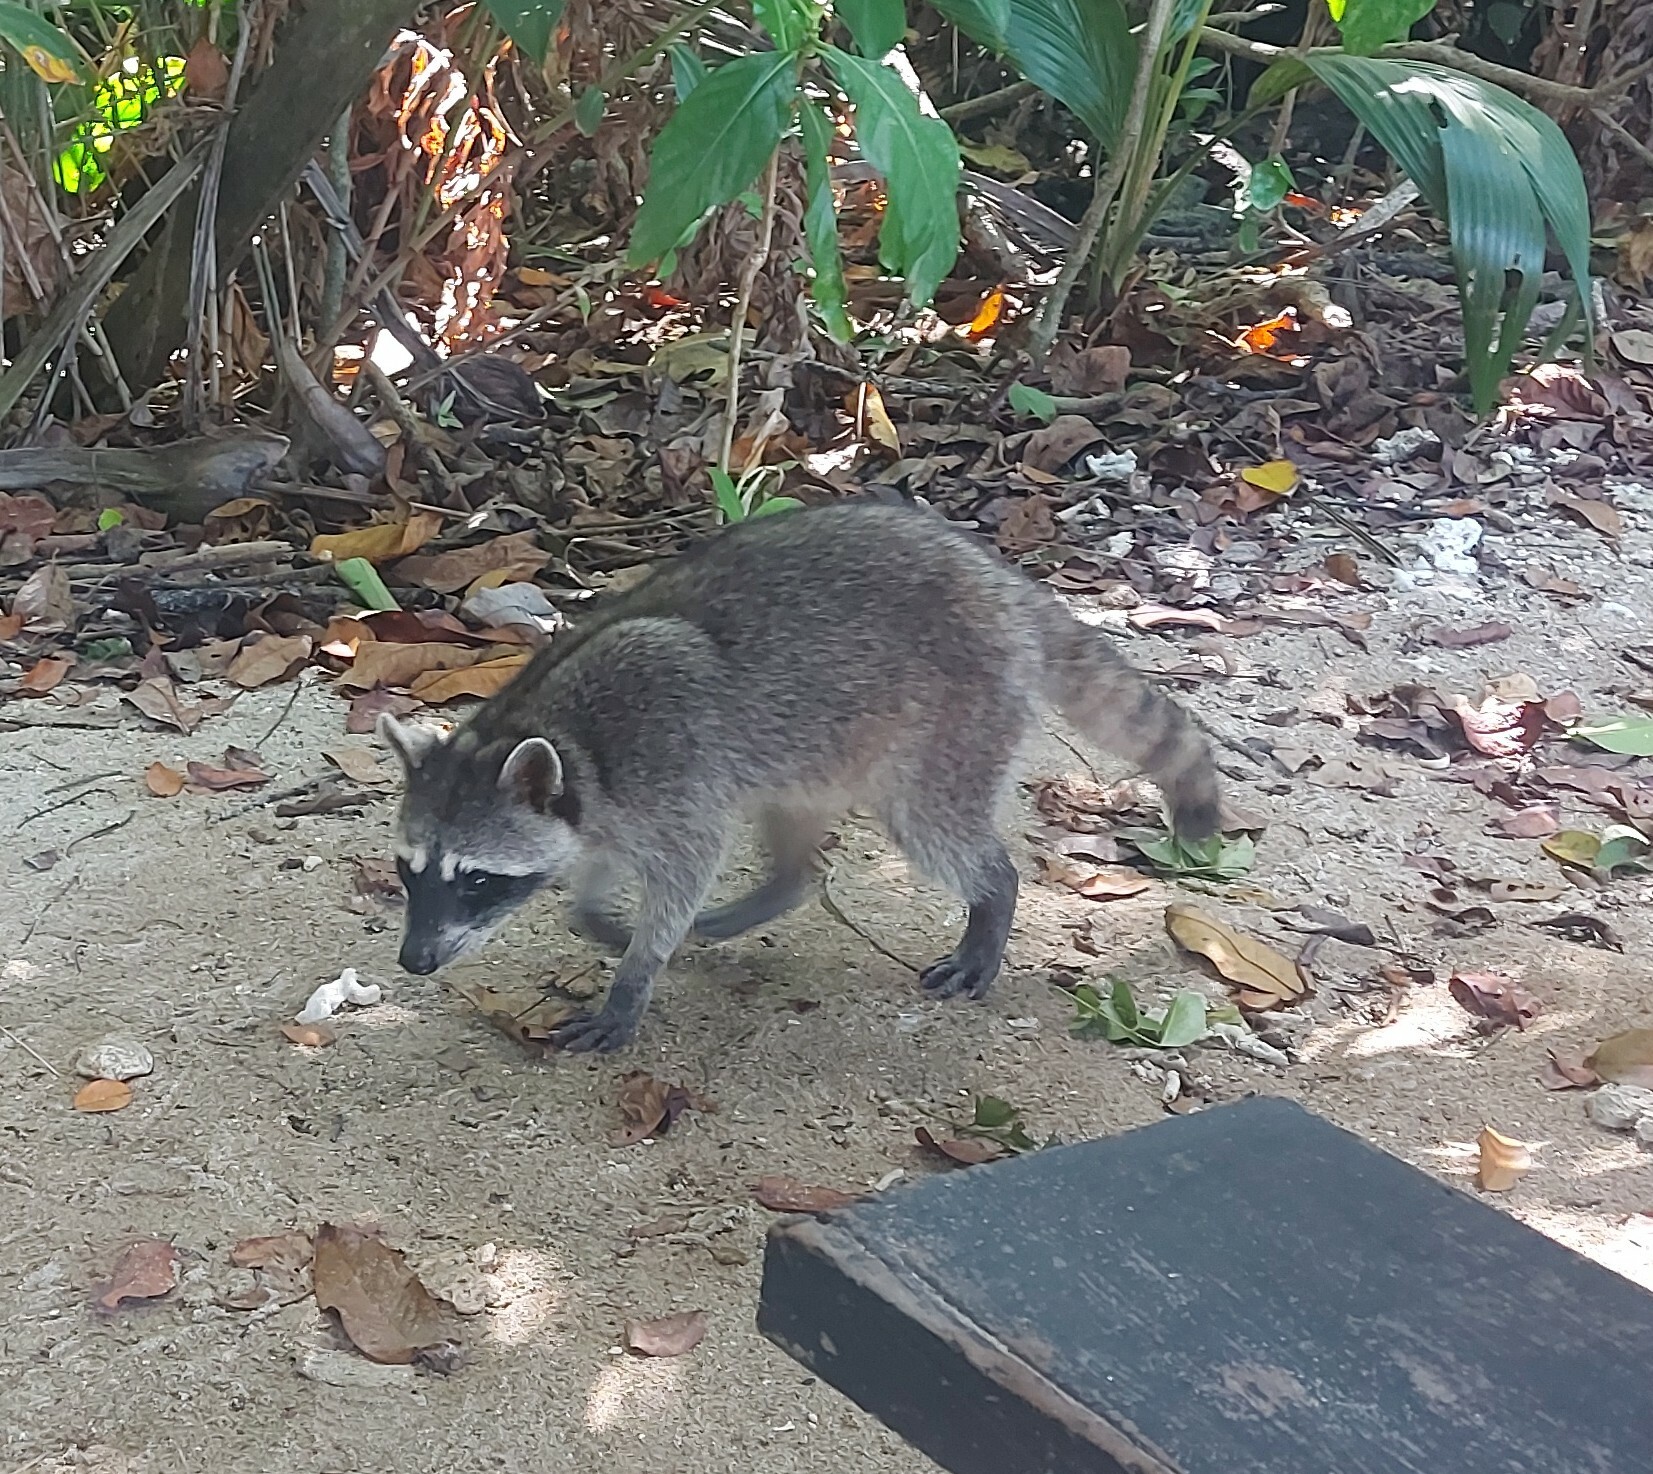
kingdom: Animalia
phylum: Chordata
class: Mammalia
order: Carnivora
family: Procyonidae
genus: Procyon
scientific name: Procyon lotor
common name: Raccoon
